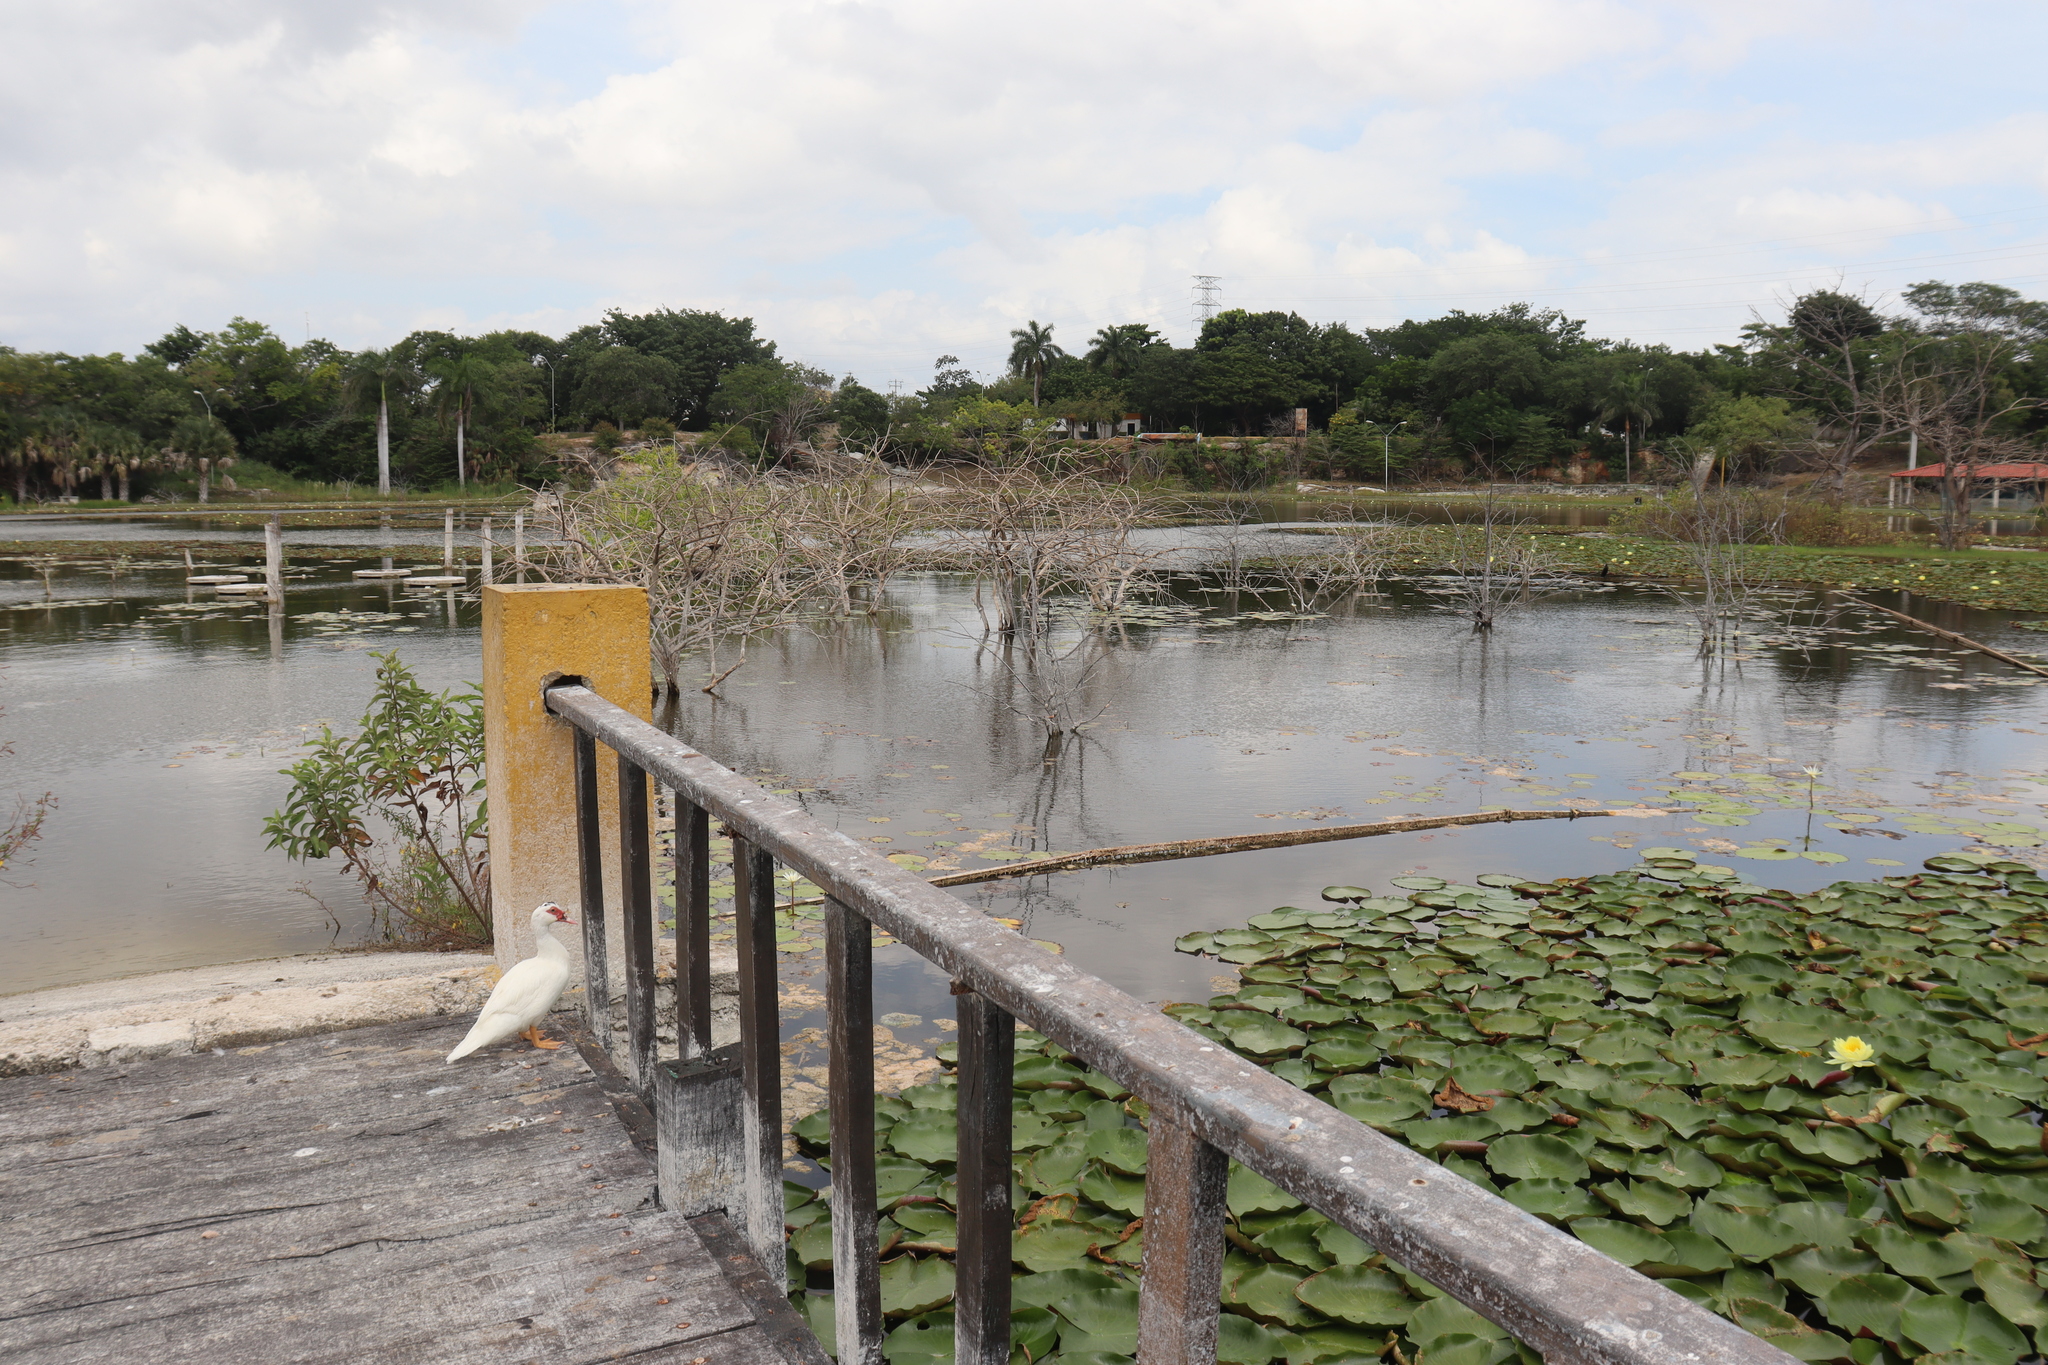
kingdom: Animalia
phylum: Chordata
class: Aves
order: Anseriformes
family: Anatidae
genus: Cairina
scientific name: Cairina moschata
